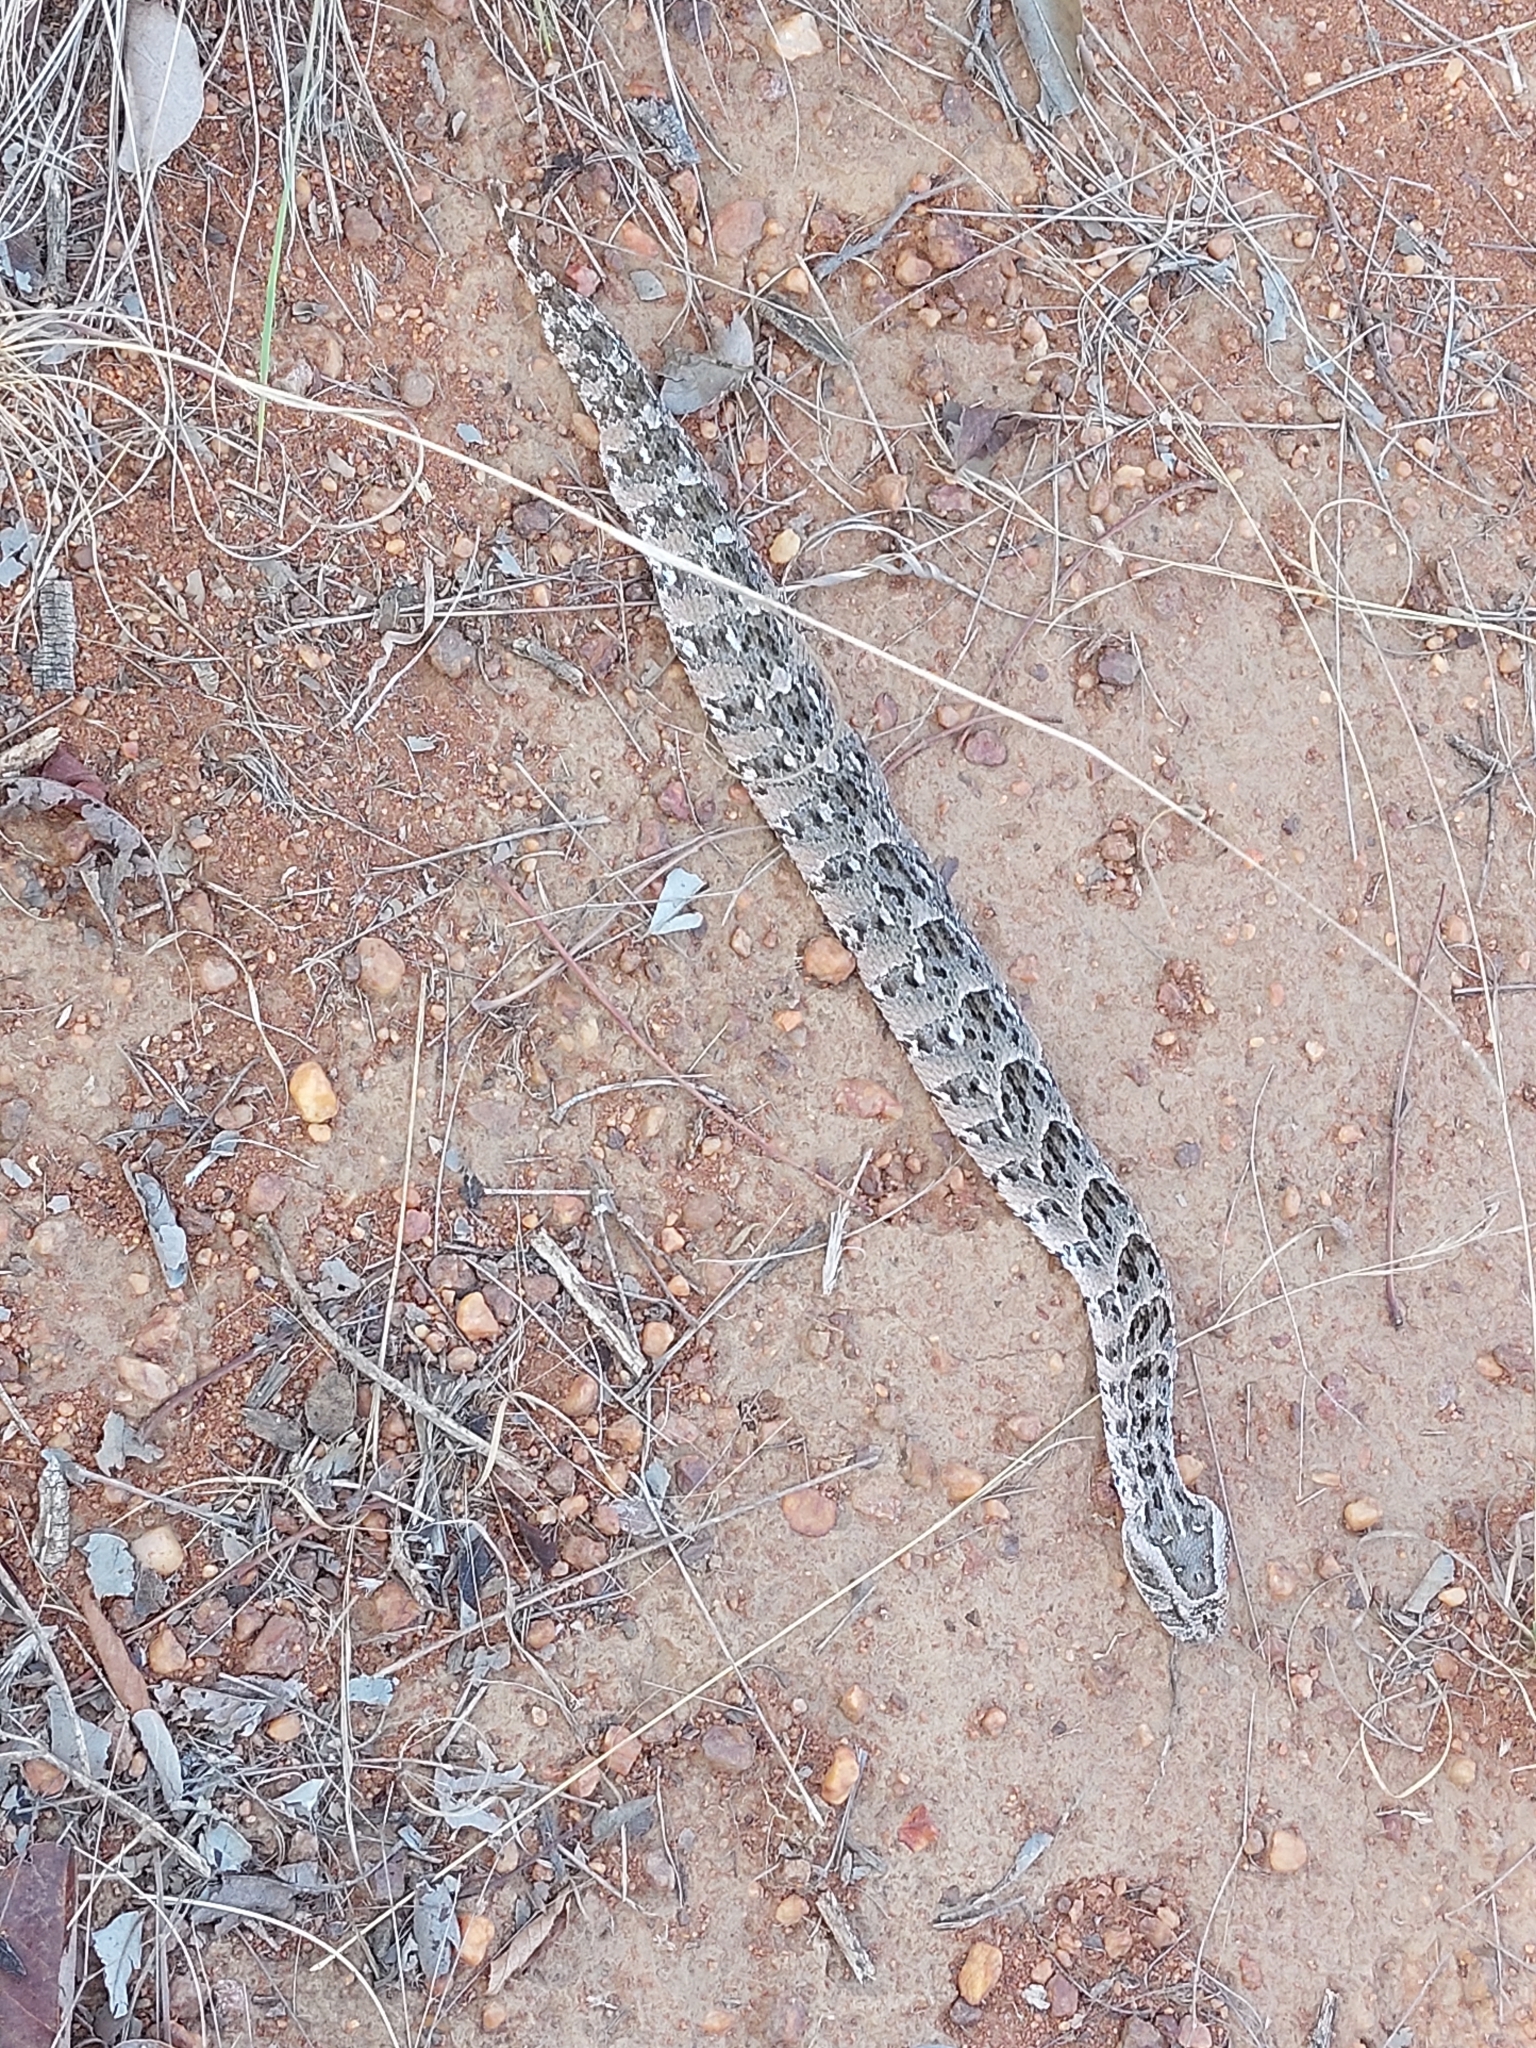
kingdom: Animalia
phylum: Chordata
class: Squamata
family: Viperidae
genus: Bitis
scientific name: Bitis arietans
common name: Puff adder
